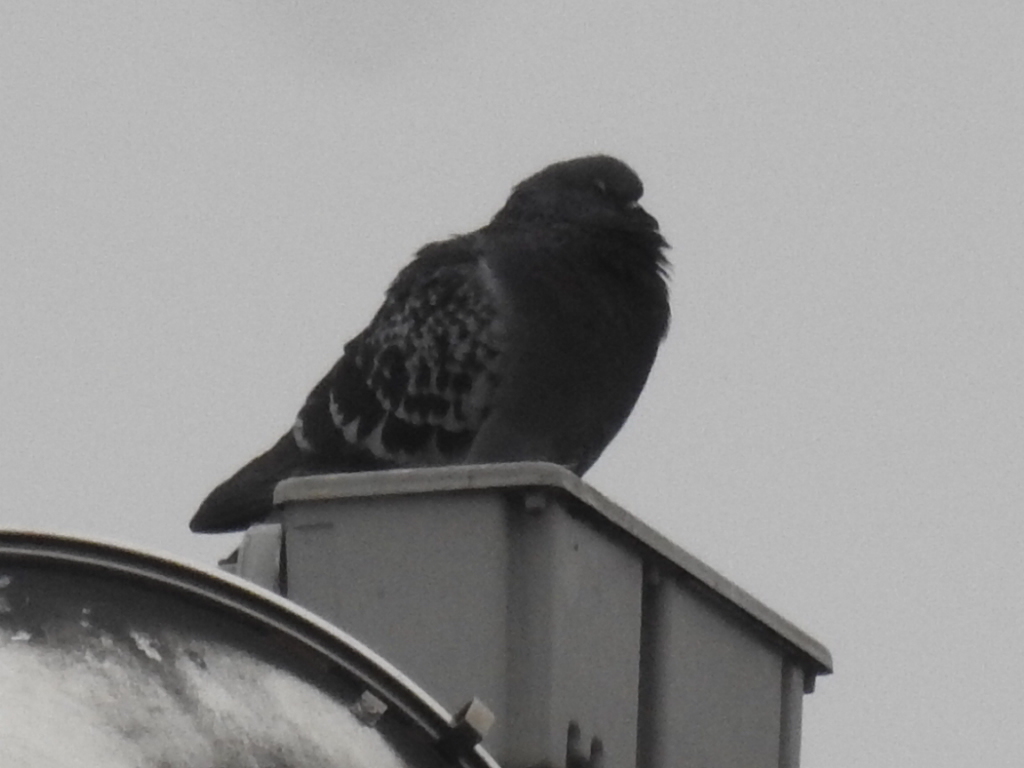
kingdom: Animalia
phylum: Chordata
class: Aves
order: Columbiformes
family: Columbidae
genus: Columba
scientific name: Columba livia
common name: Rock pigeon
